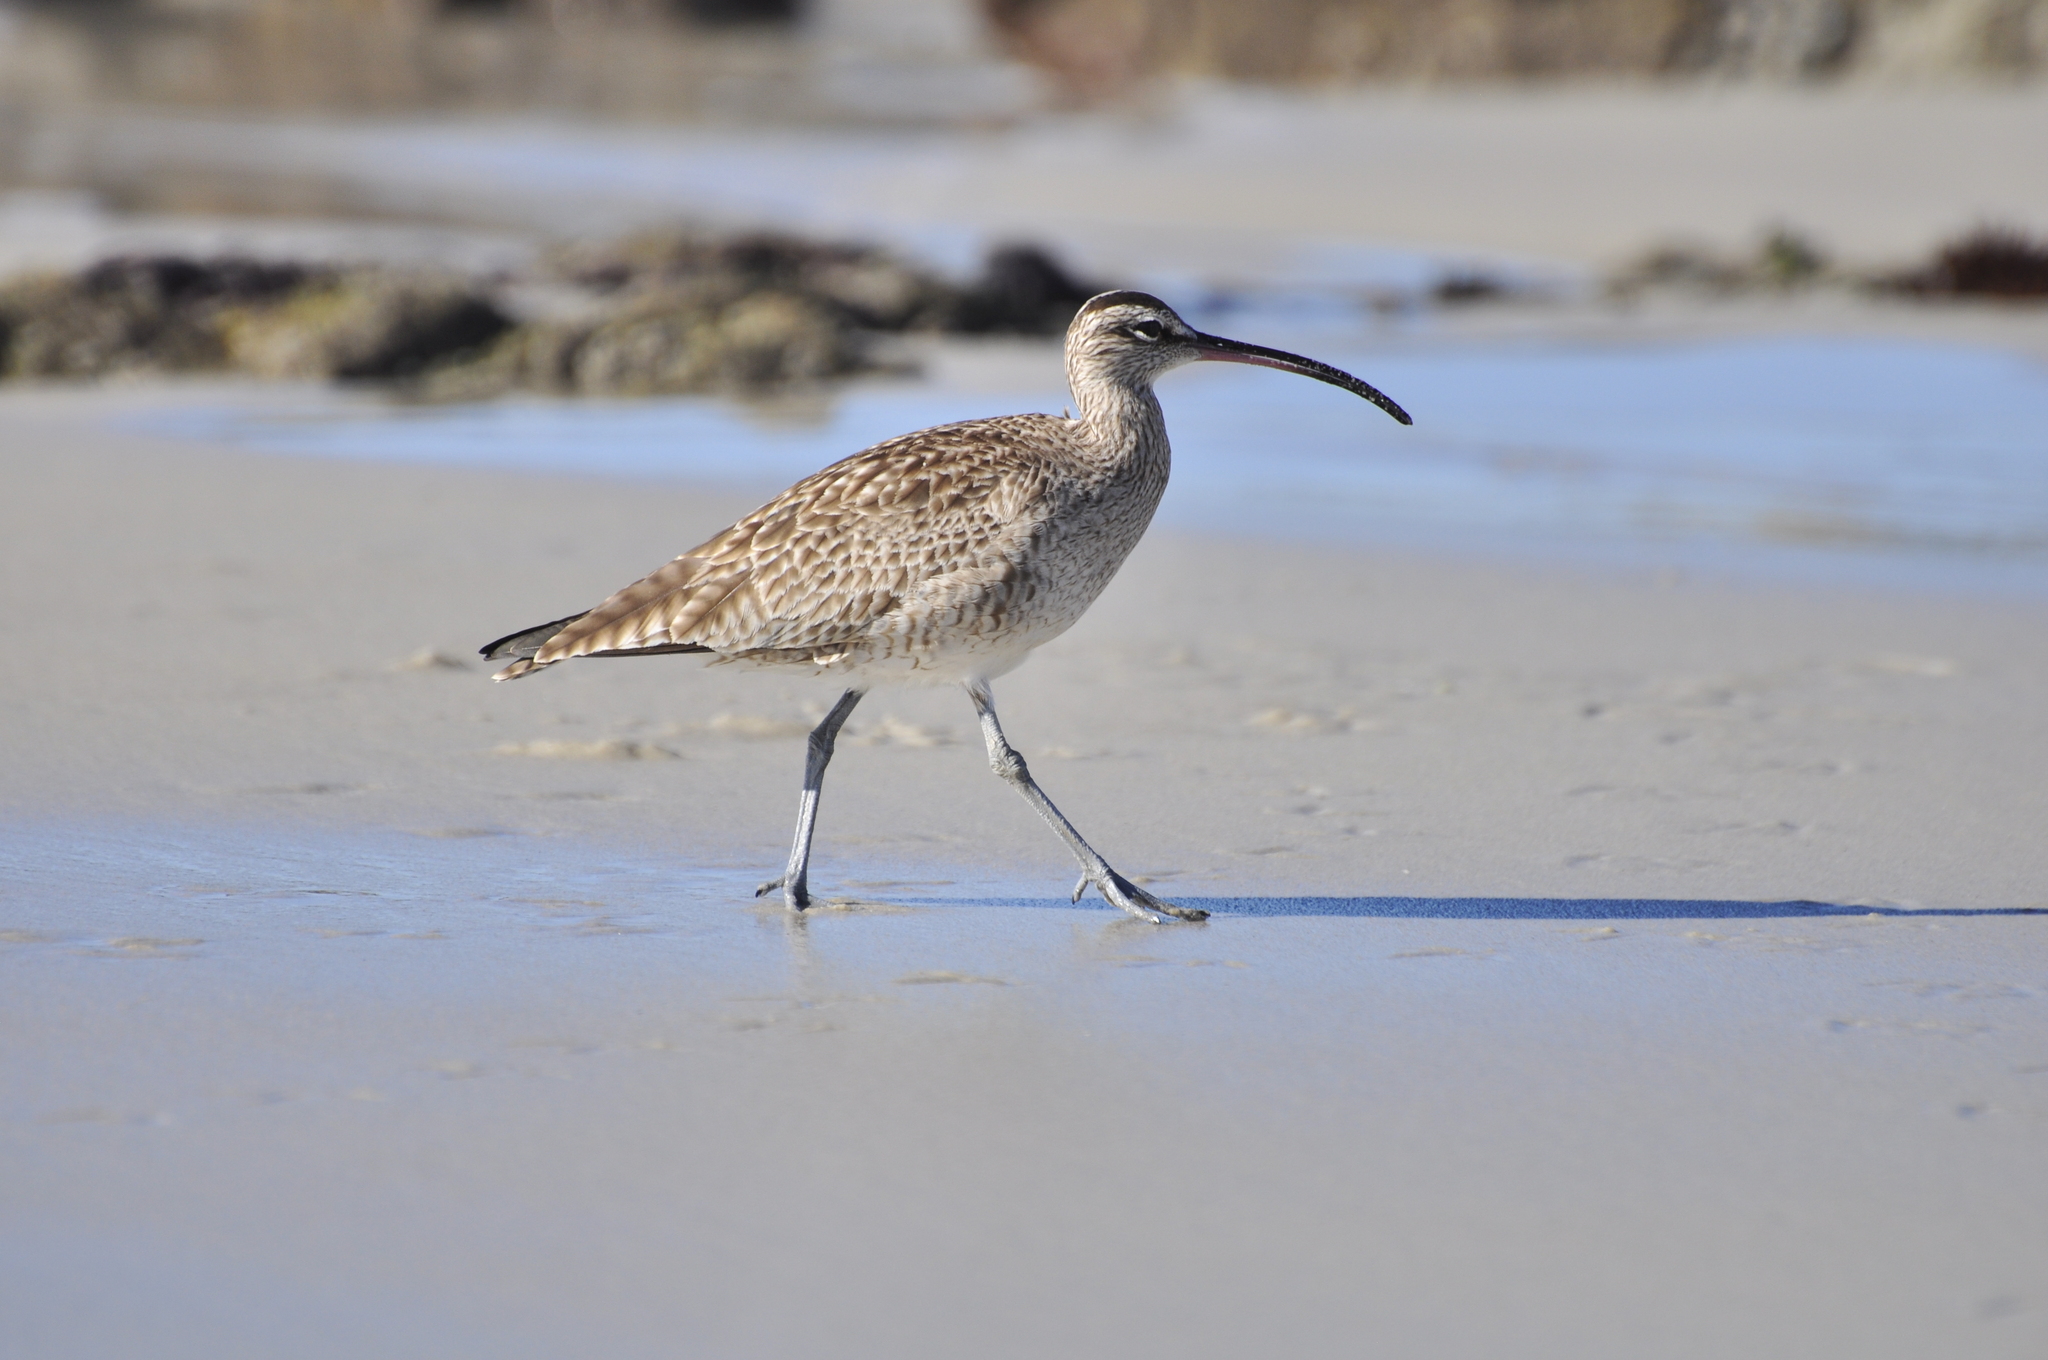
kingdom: Animalia
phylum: Chordata
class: Aves
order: Charadriiformes
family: Scolopacidae
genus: Numenius
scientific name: Numenius phaeopus
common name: Whimbrel
